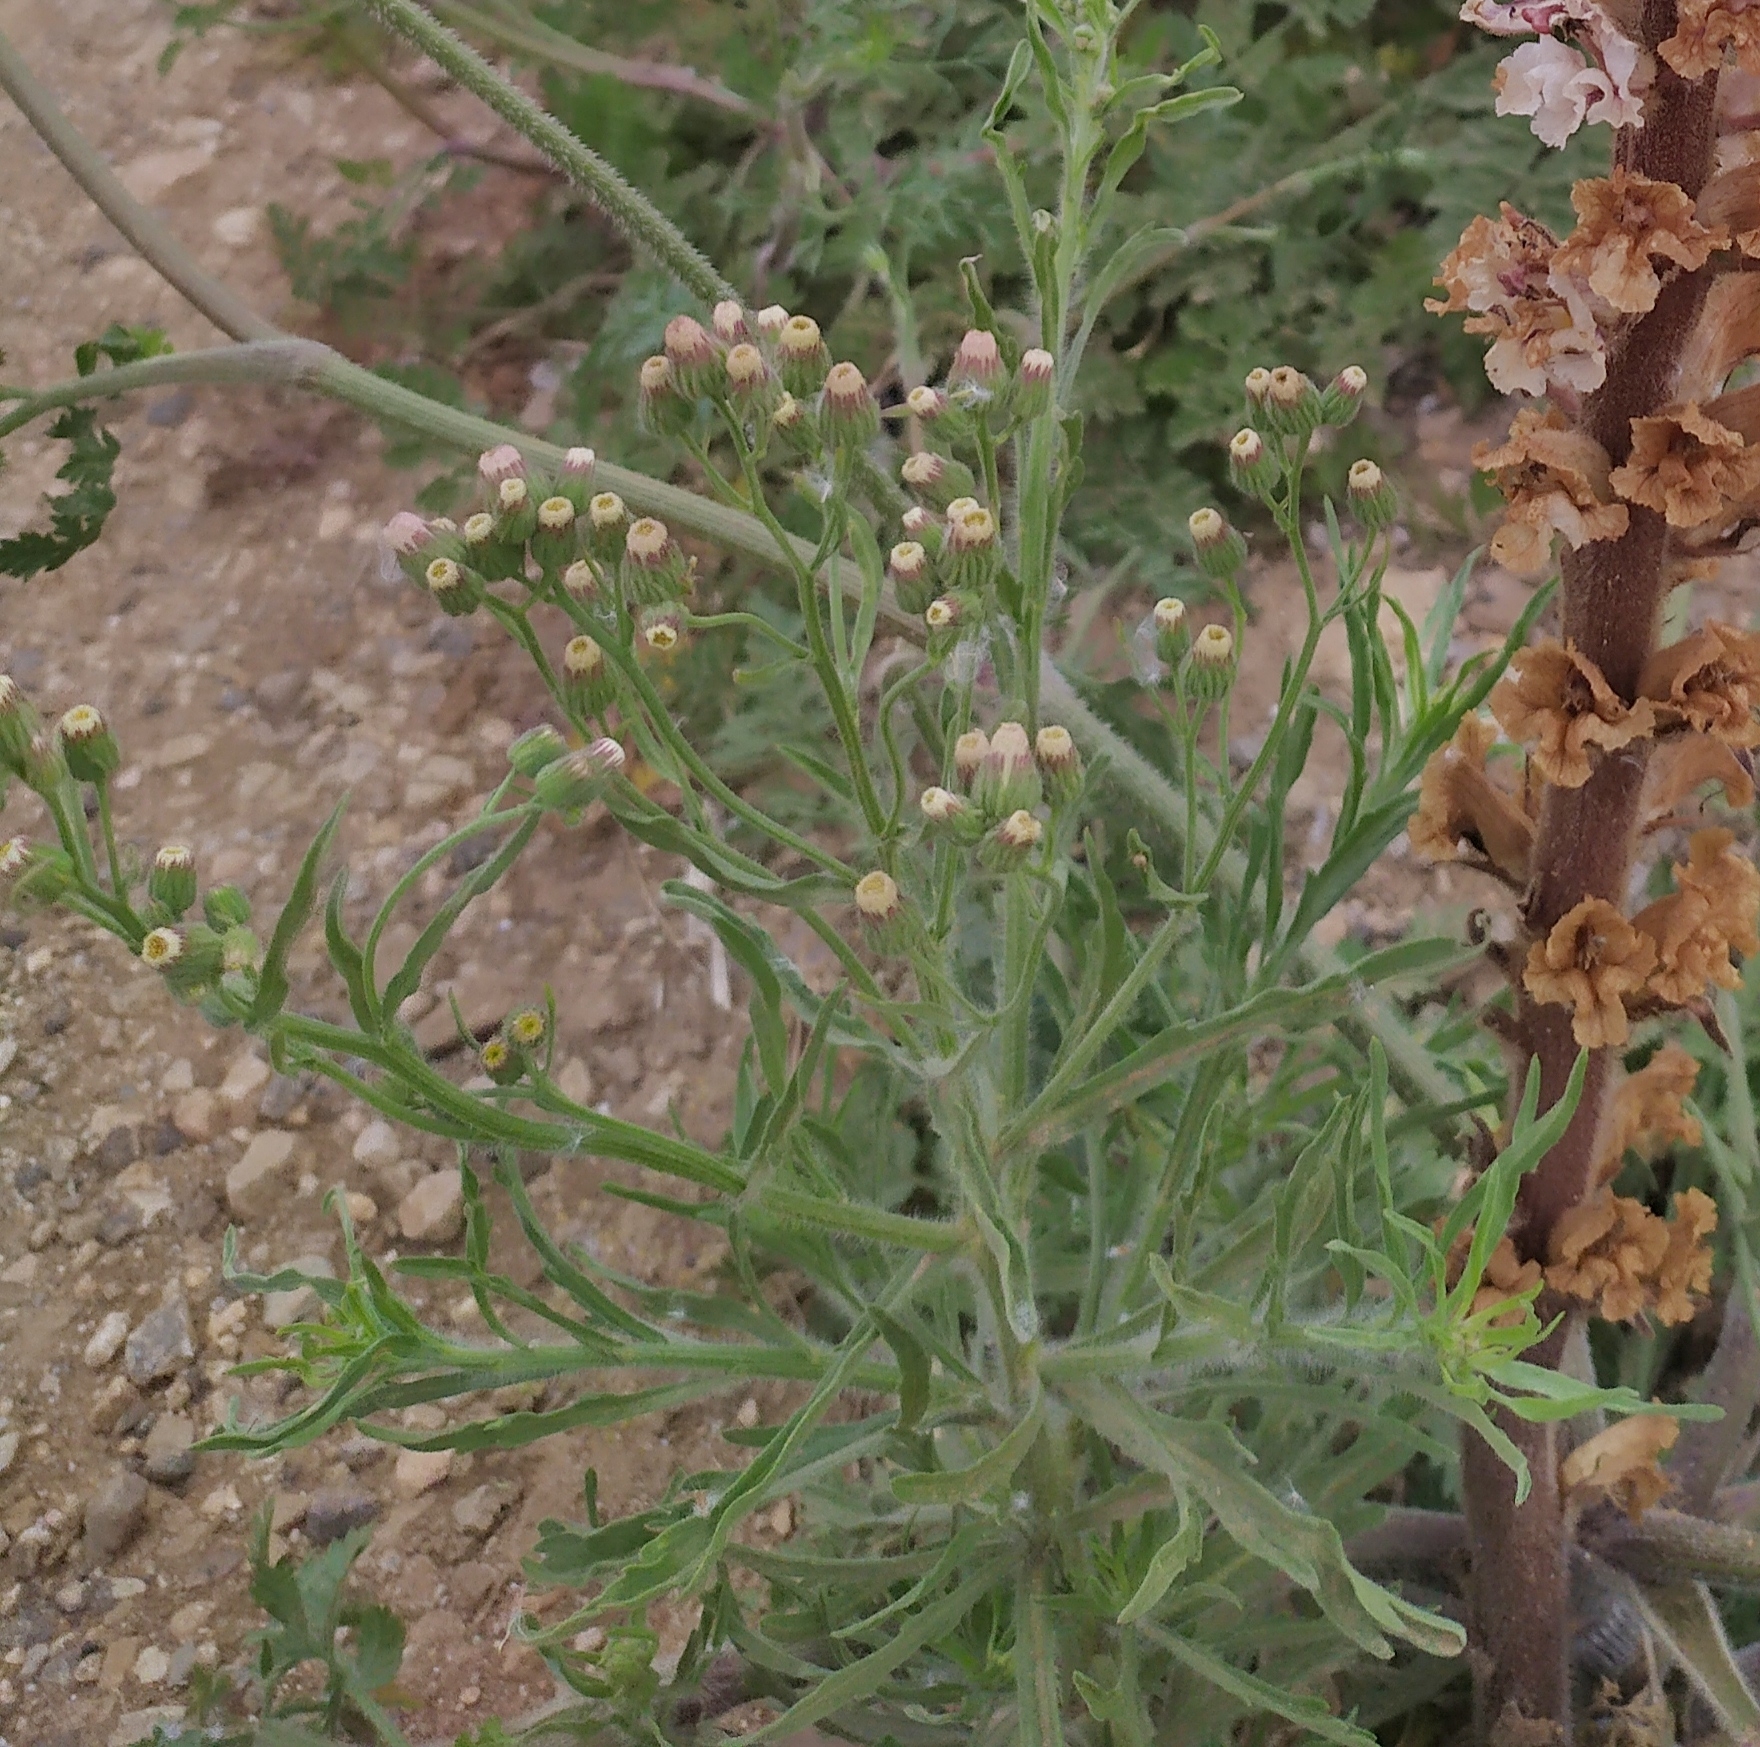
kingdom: Plantae
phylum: Tracheophyta
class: Magnoliopsida
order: Asterales
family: Asteraceae
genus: Erigeron
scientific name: Erigeron bonariensis
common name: Argentine fleabane
